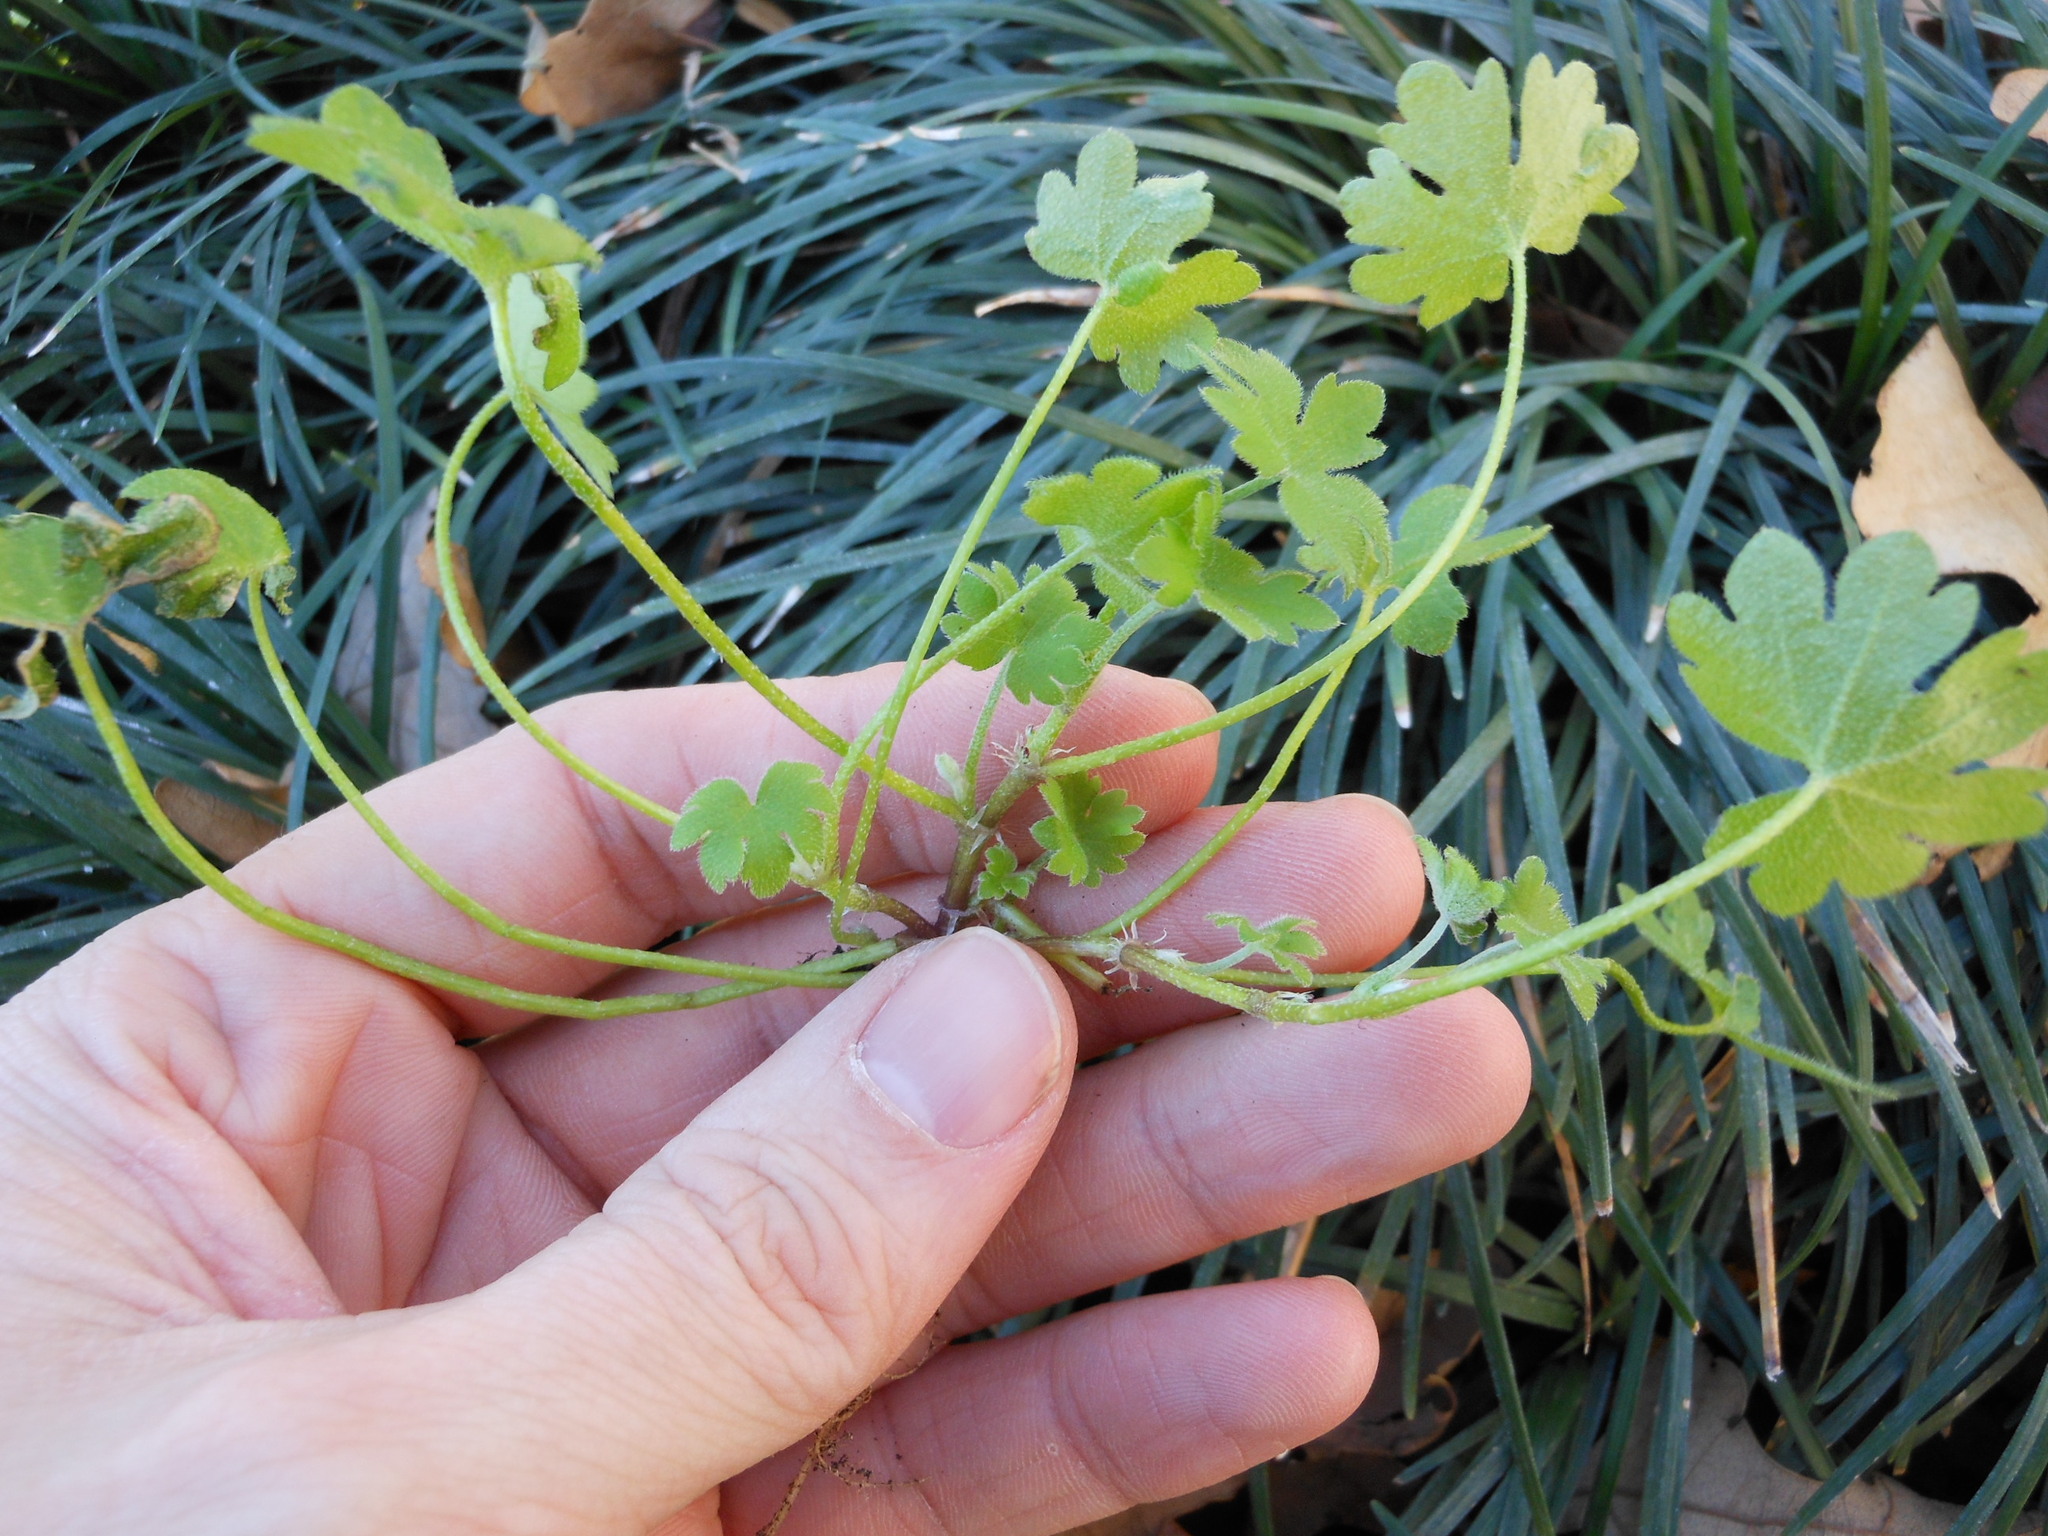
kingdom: Plantae
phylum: Tracheophyta
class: Magnoliopsida
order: Apiales
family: Apiaceae
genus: Bowlesia
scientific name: Bowlesia incana
